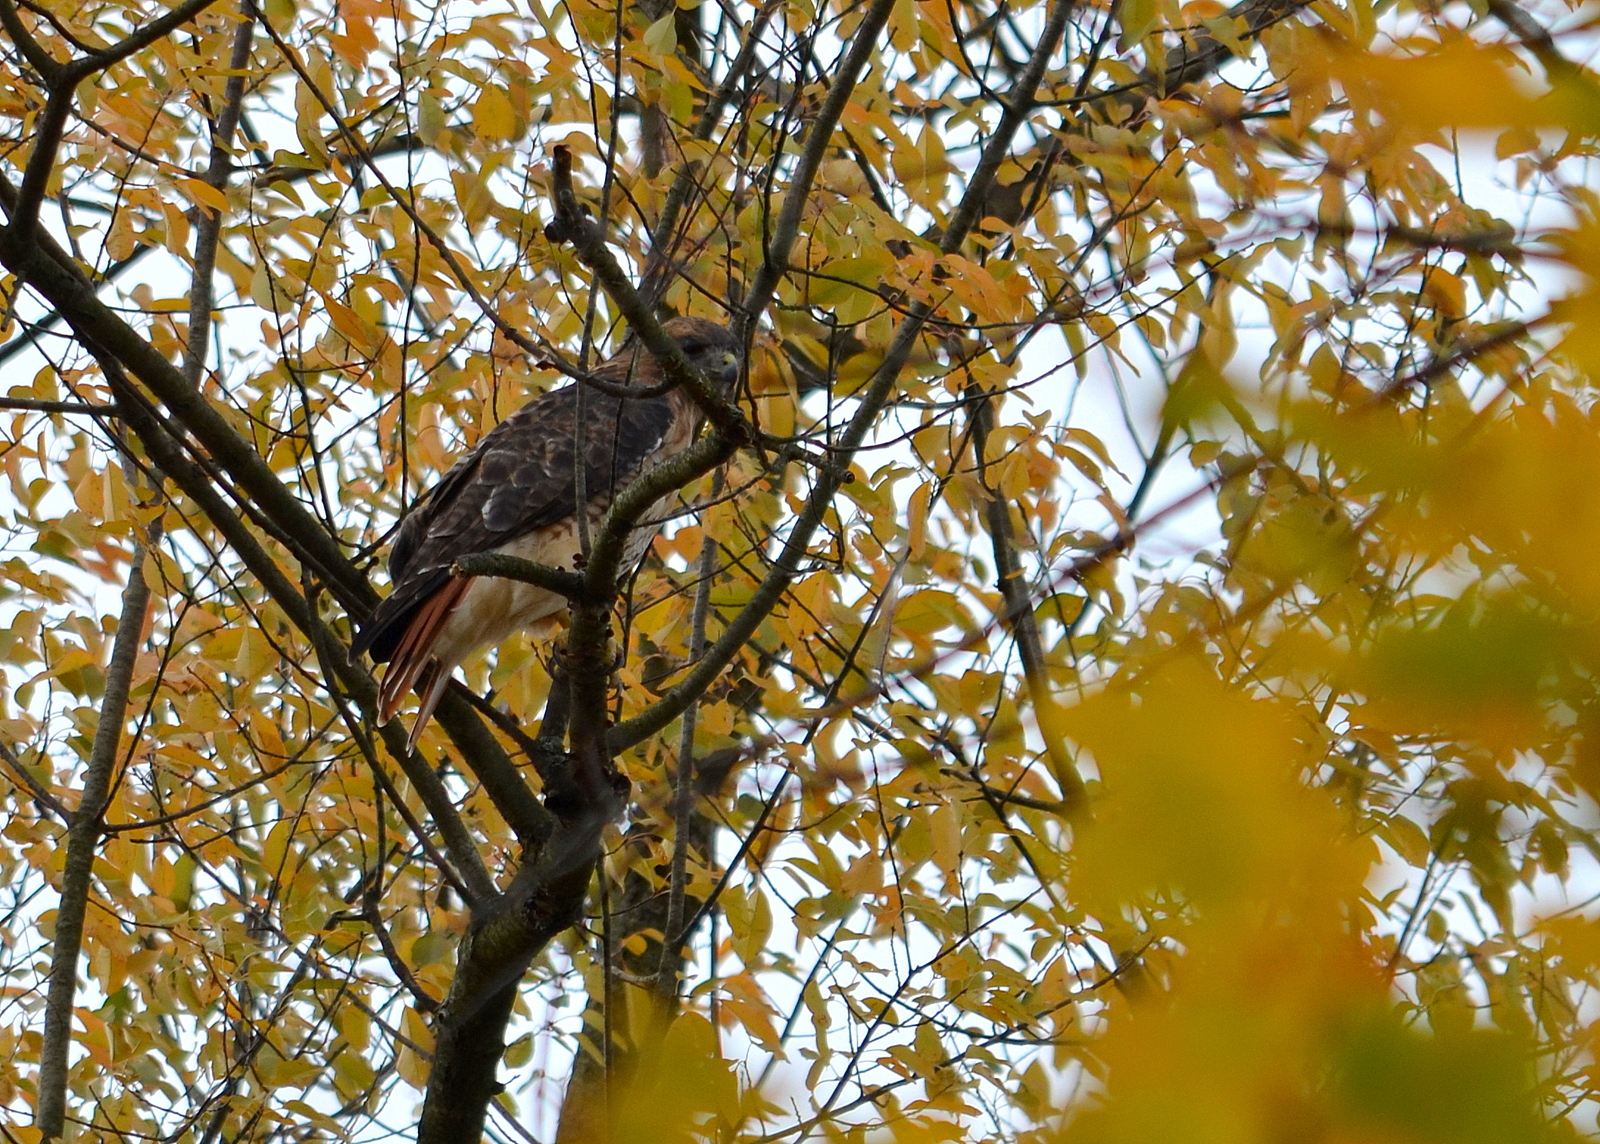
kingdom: Animalia
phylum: Chordata
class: Aves
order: Accipitriformes
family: Accipitridae
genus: Buteo
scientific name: Buteo jamaicensis
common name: Red-tailed hawk
